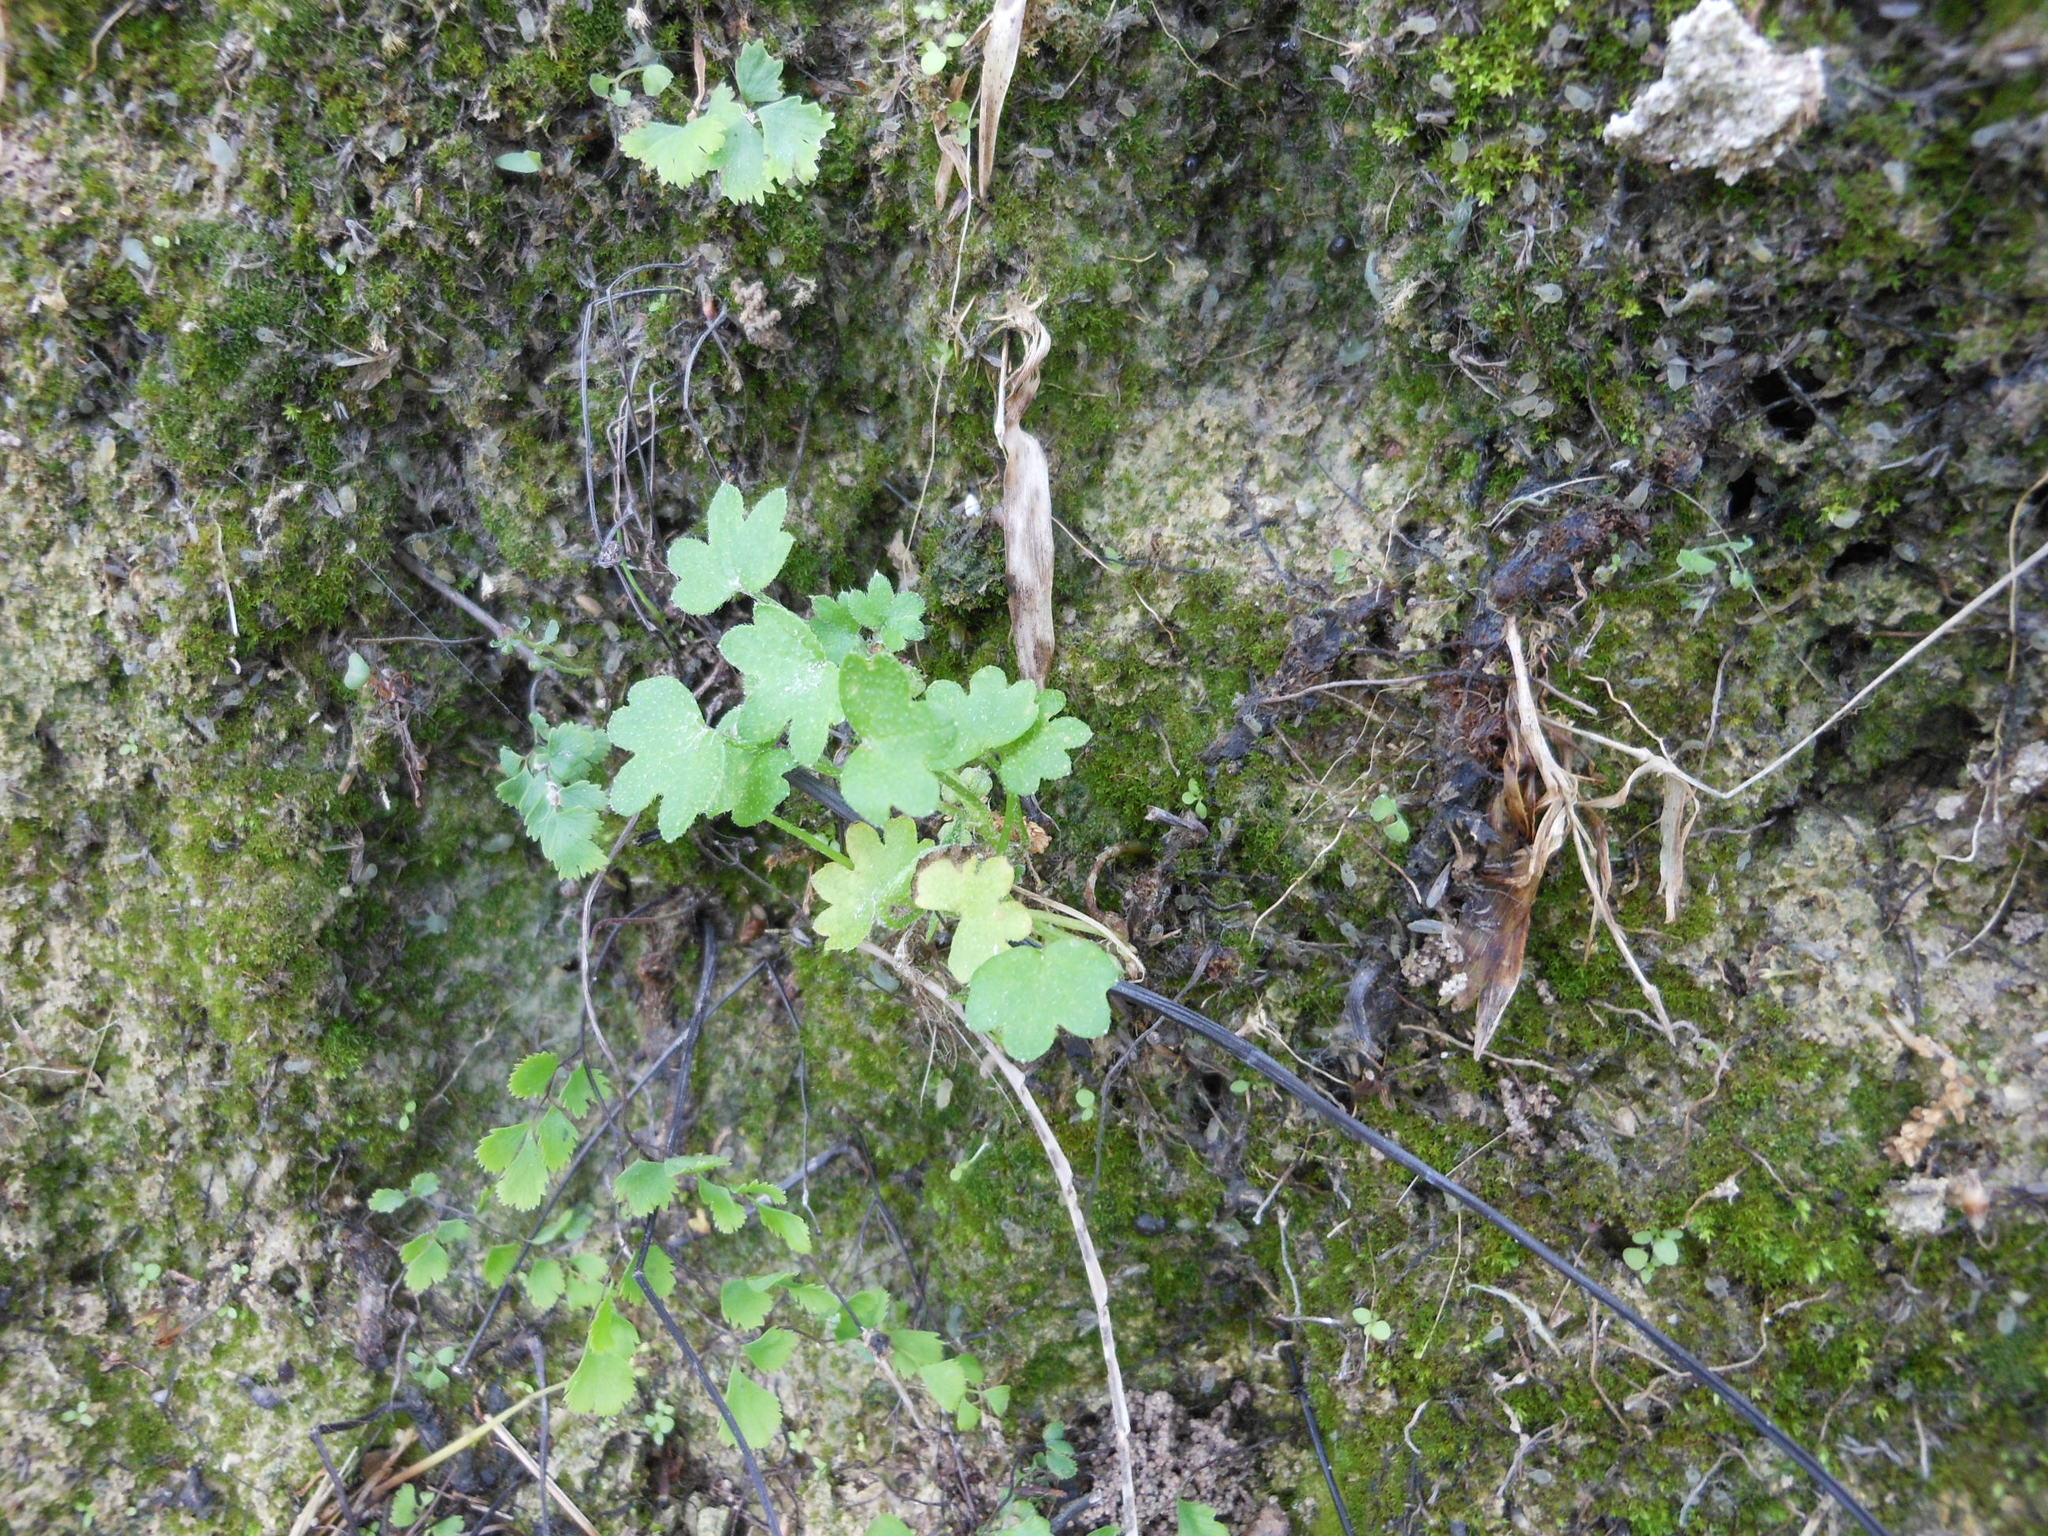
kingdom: Plantae
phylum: Tracheophyta
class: Magnoliopsida
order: Apiales
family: Apiaceae
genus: Bowlesia
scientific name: Bowlesia incana
